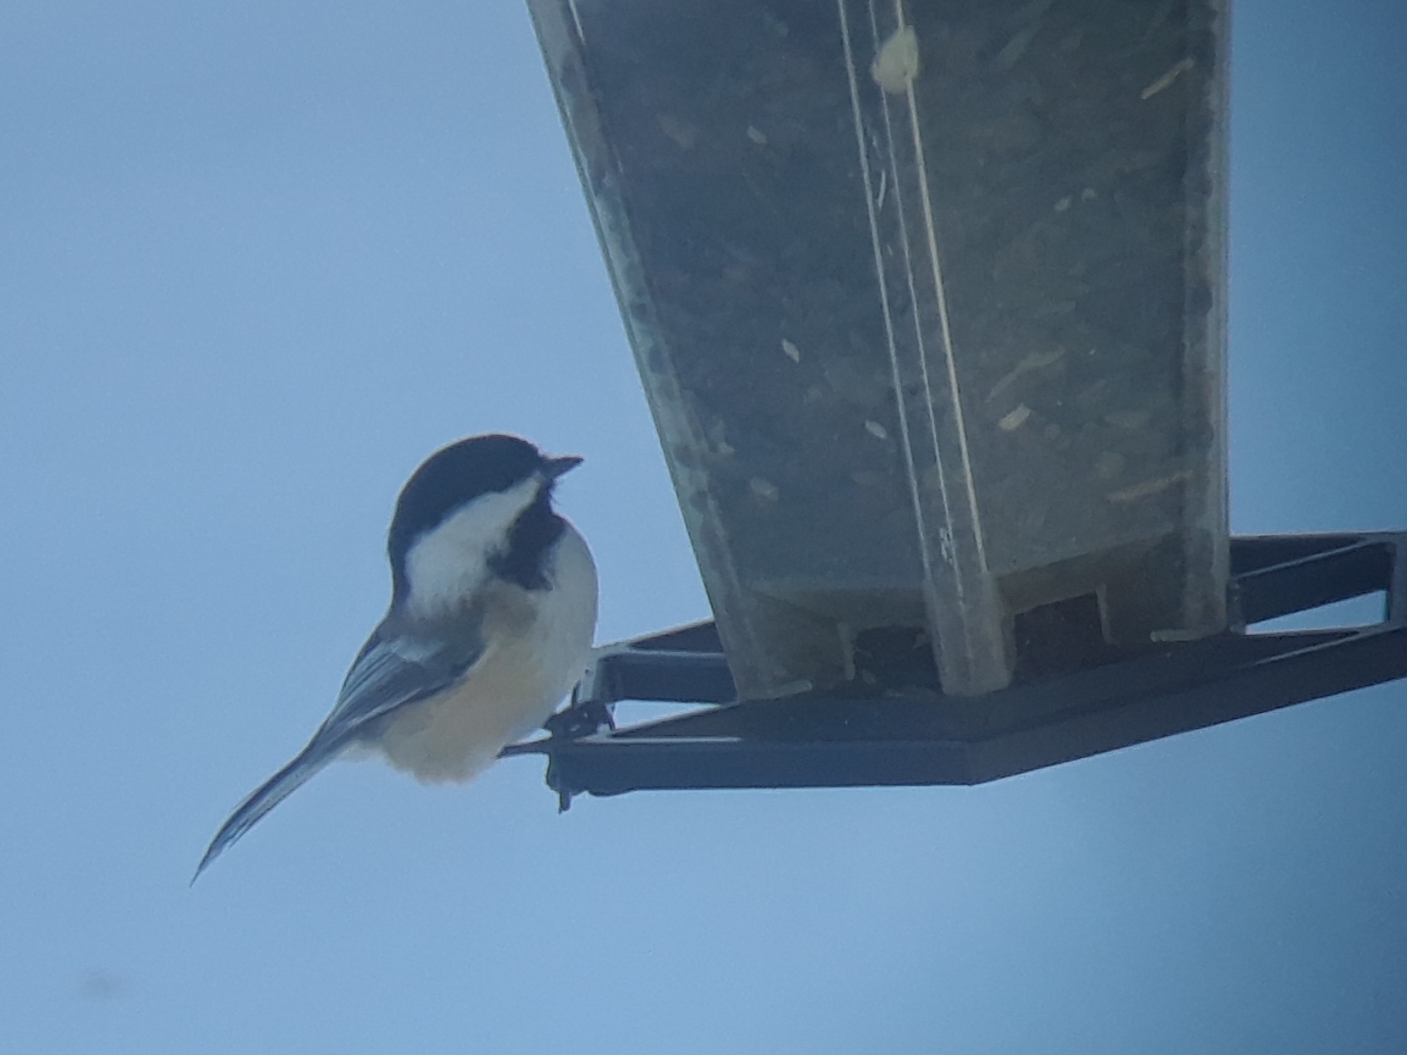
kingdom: Animalia
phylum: Chordata
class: Aves
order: Passeriformes
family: Paridae
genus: Poecile
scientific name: Poecile atricapillus
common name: Black-capped chickadee
